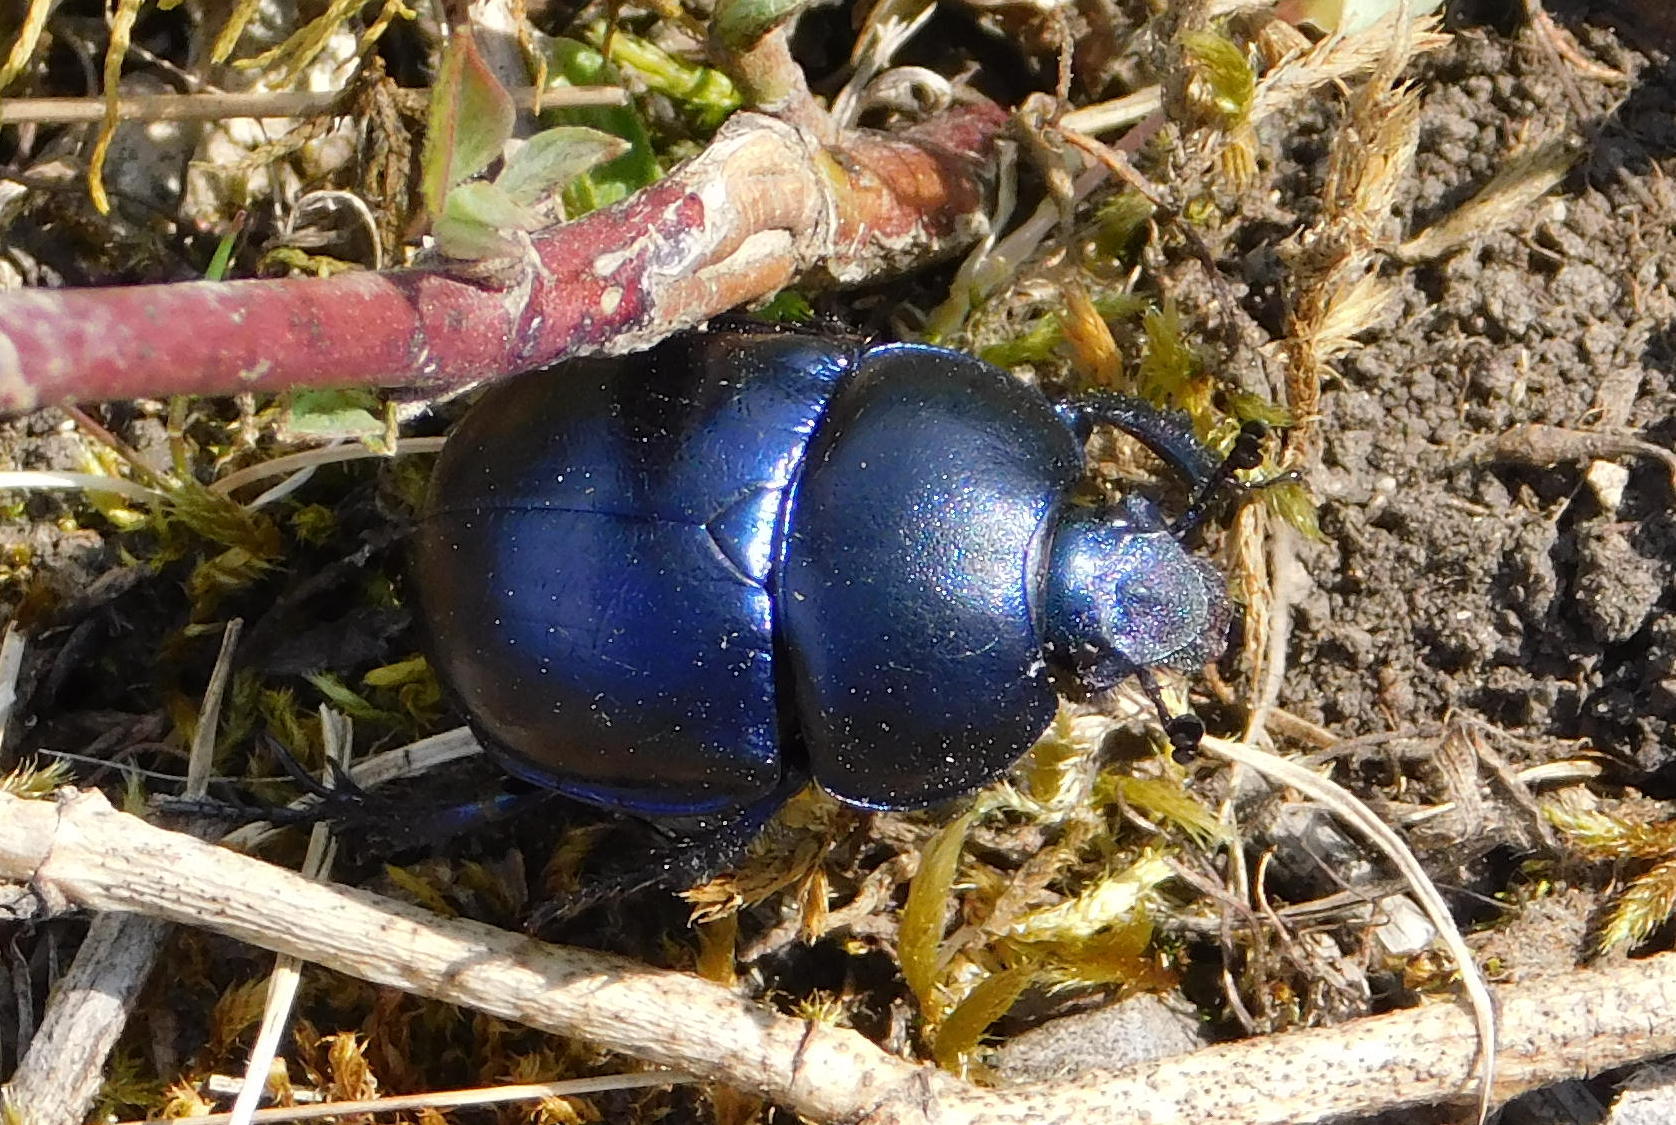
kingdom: Animalia
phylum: Arthropoda
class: Insecta
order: Coleoptera
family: Geotrupidae
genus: Trypocopris
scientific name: Trypocopris vernalis
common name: Spring dumbledor
